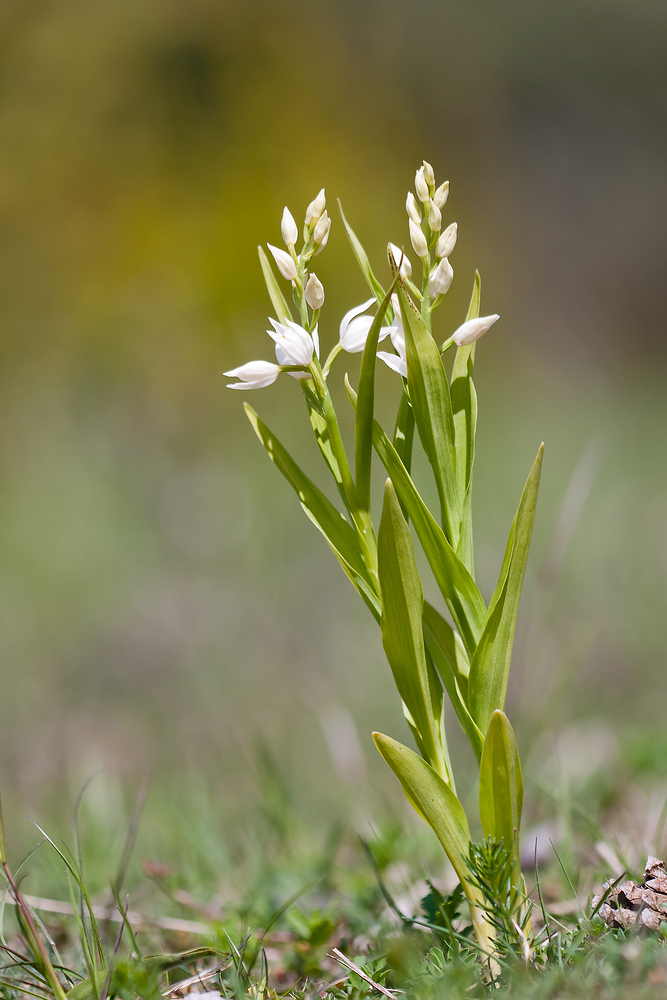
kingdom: Plantae
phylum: Tracheophyta
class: Liliopsida
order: Asparagales
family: Orchidaceae
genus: Cephalanthera
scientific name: Cephalanthera longifolia
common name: Narrow-leaved helleborine
